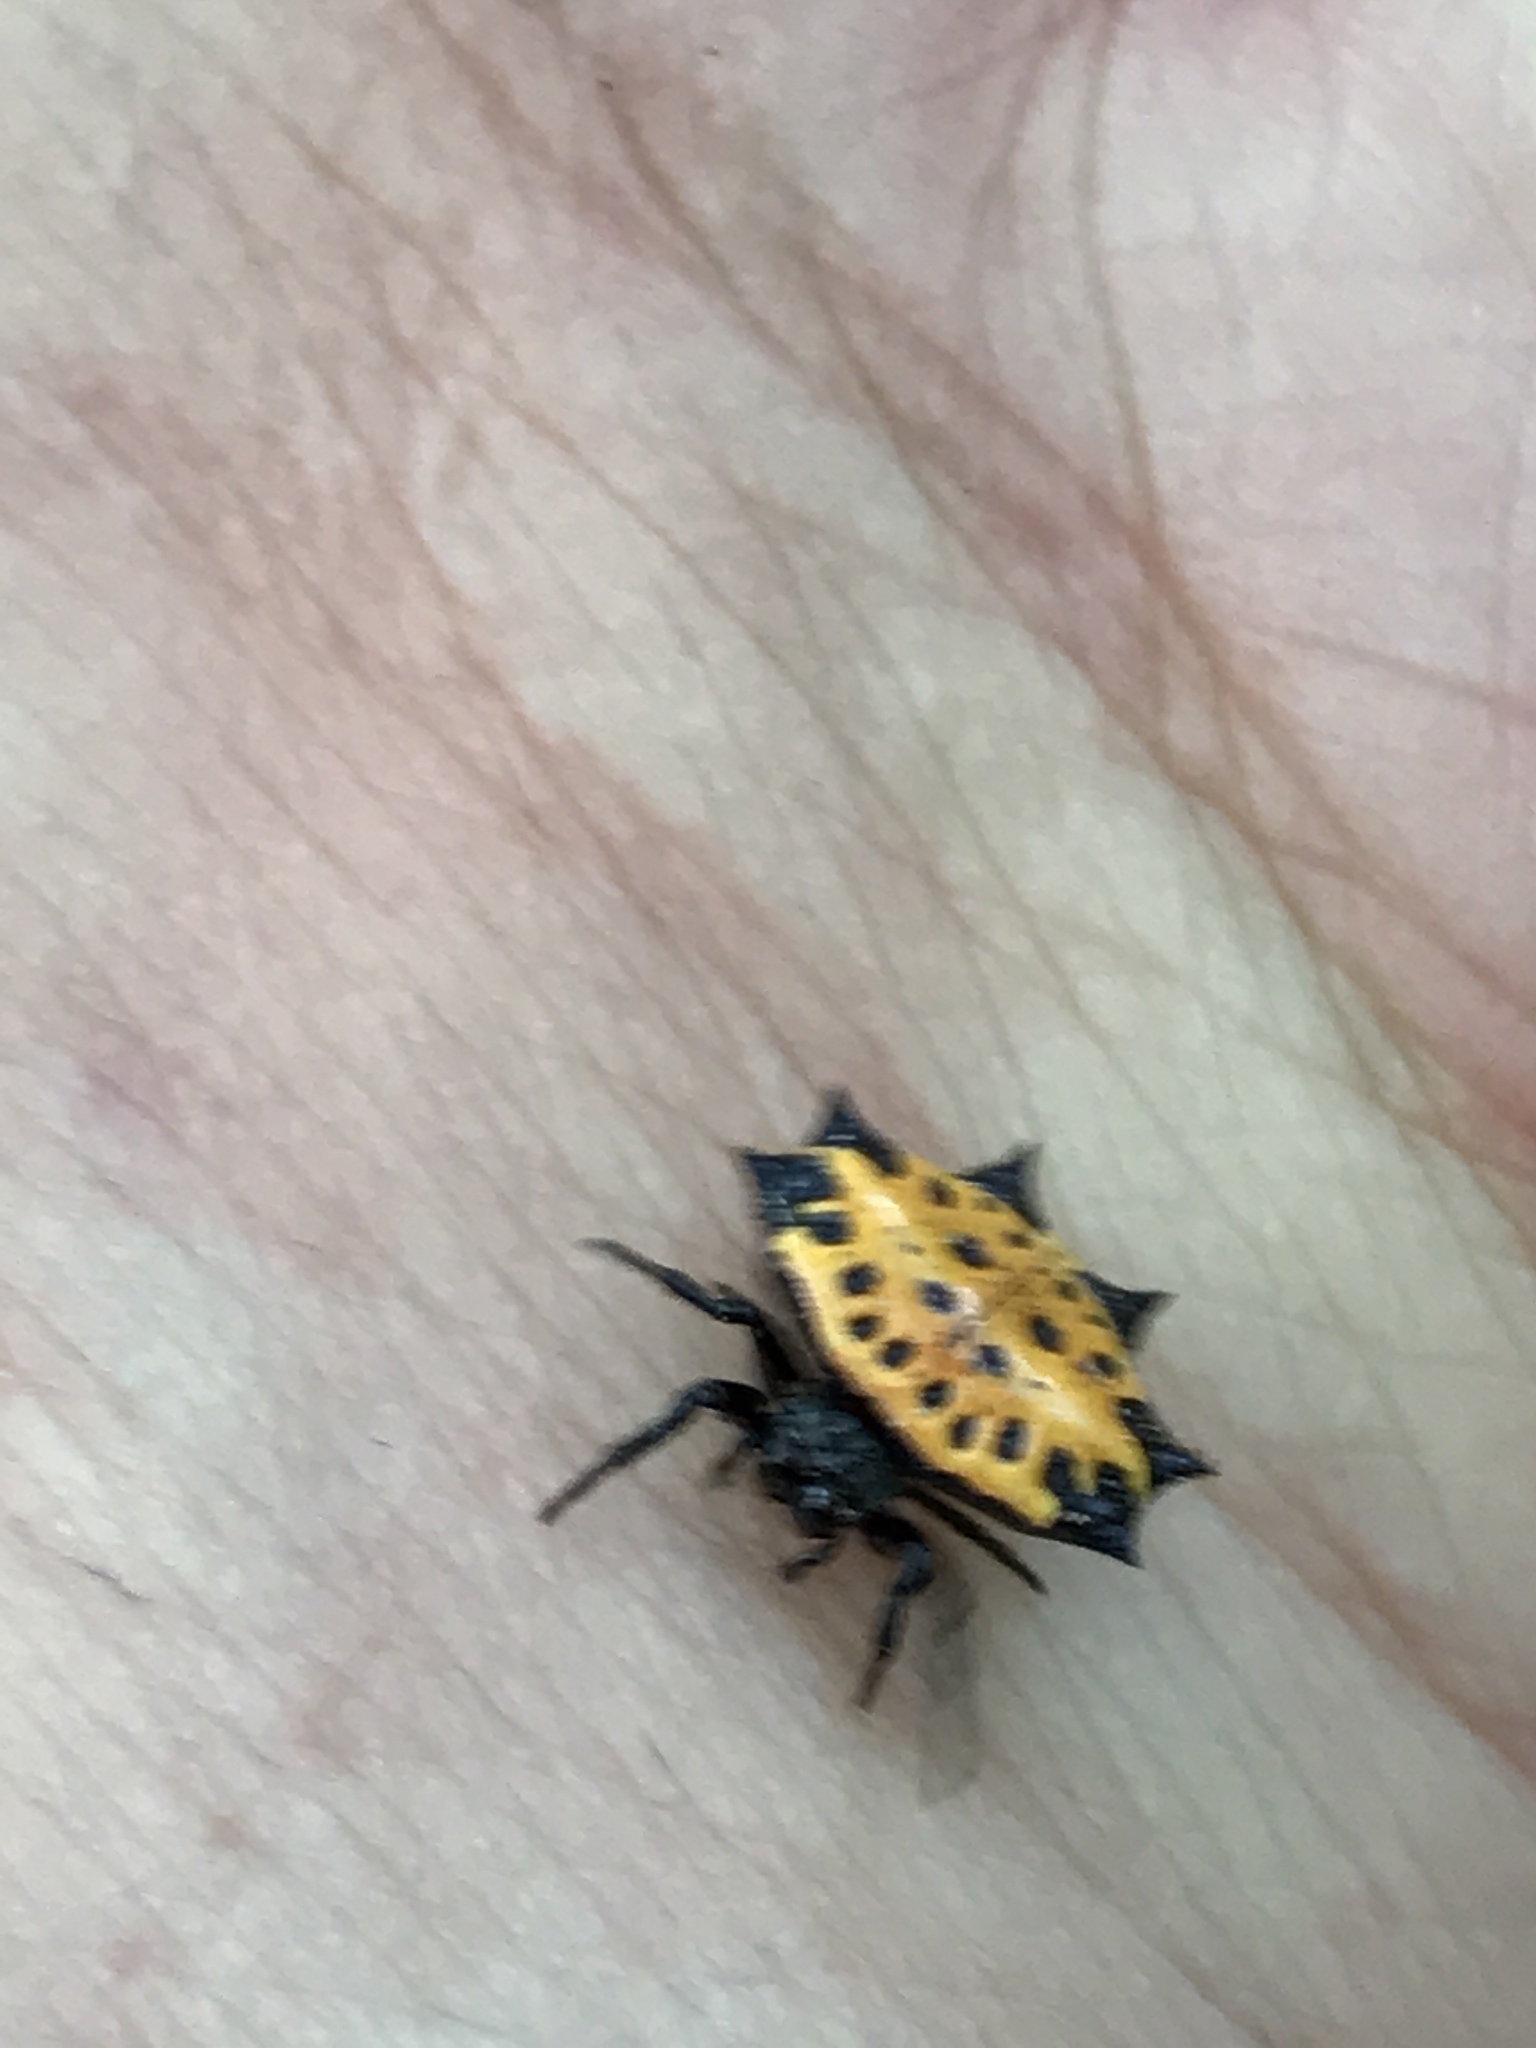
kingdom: Animalia
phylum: Arthropoda
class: Arachnida
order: Araneae
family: Araneidae
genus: Gasteracantha
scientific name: Gasteracantha cancriformis
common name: Orb weavers
